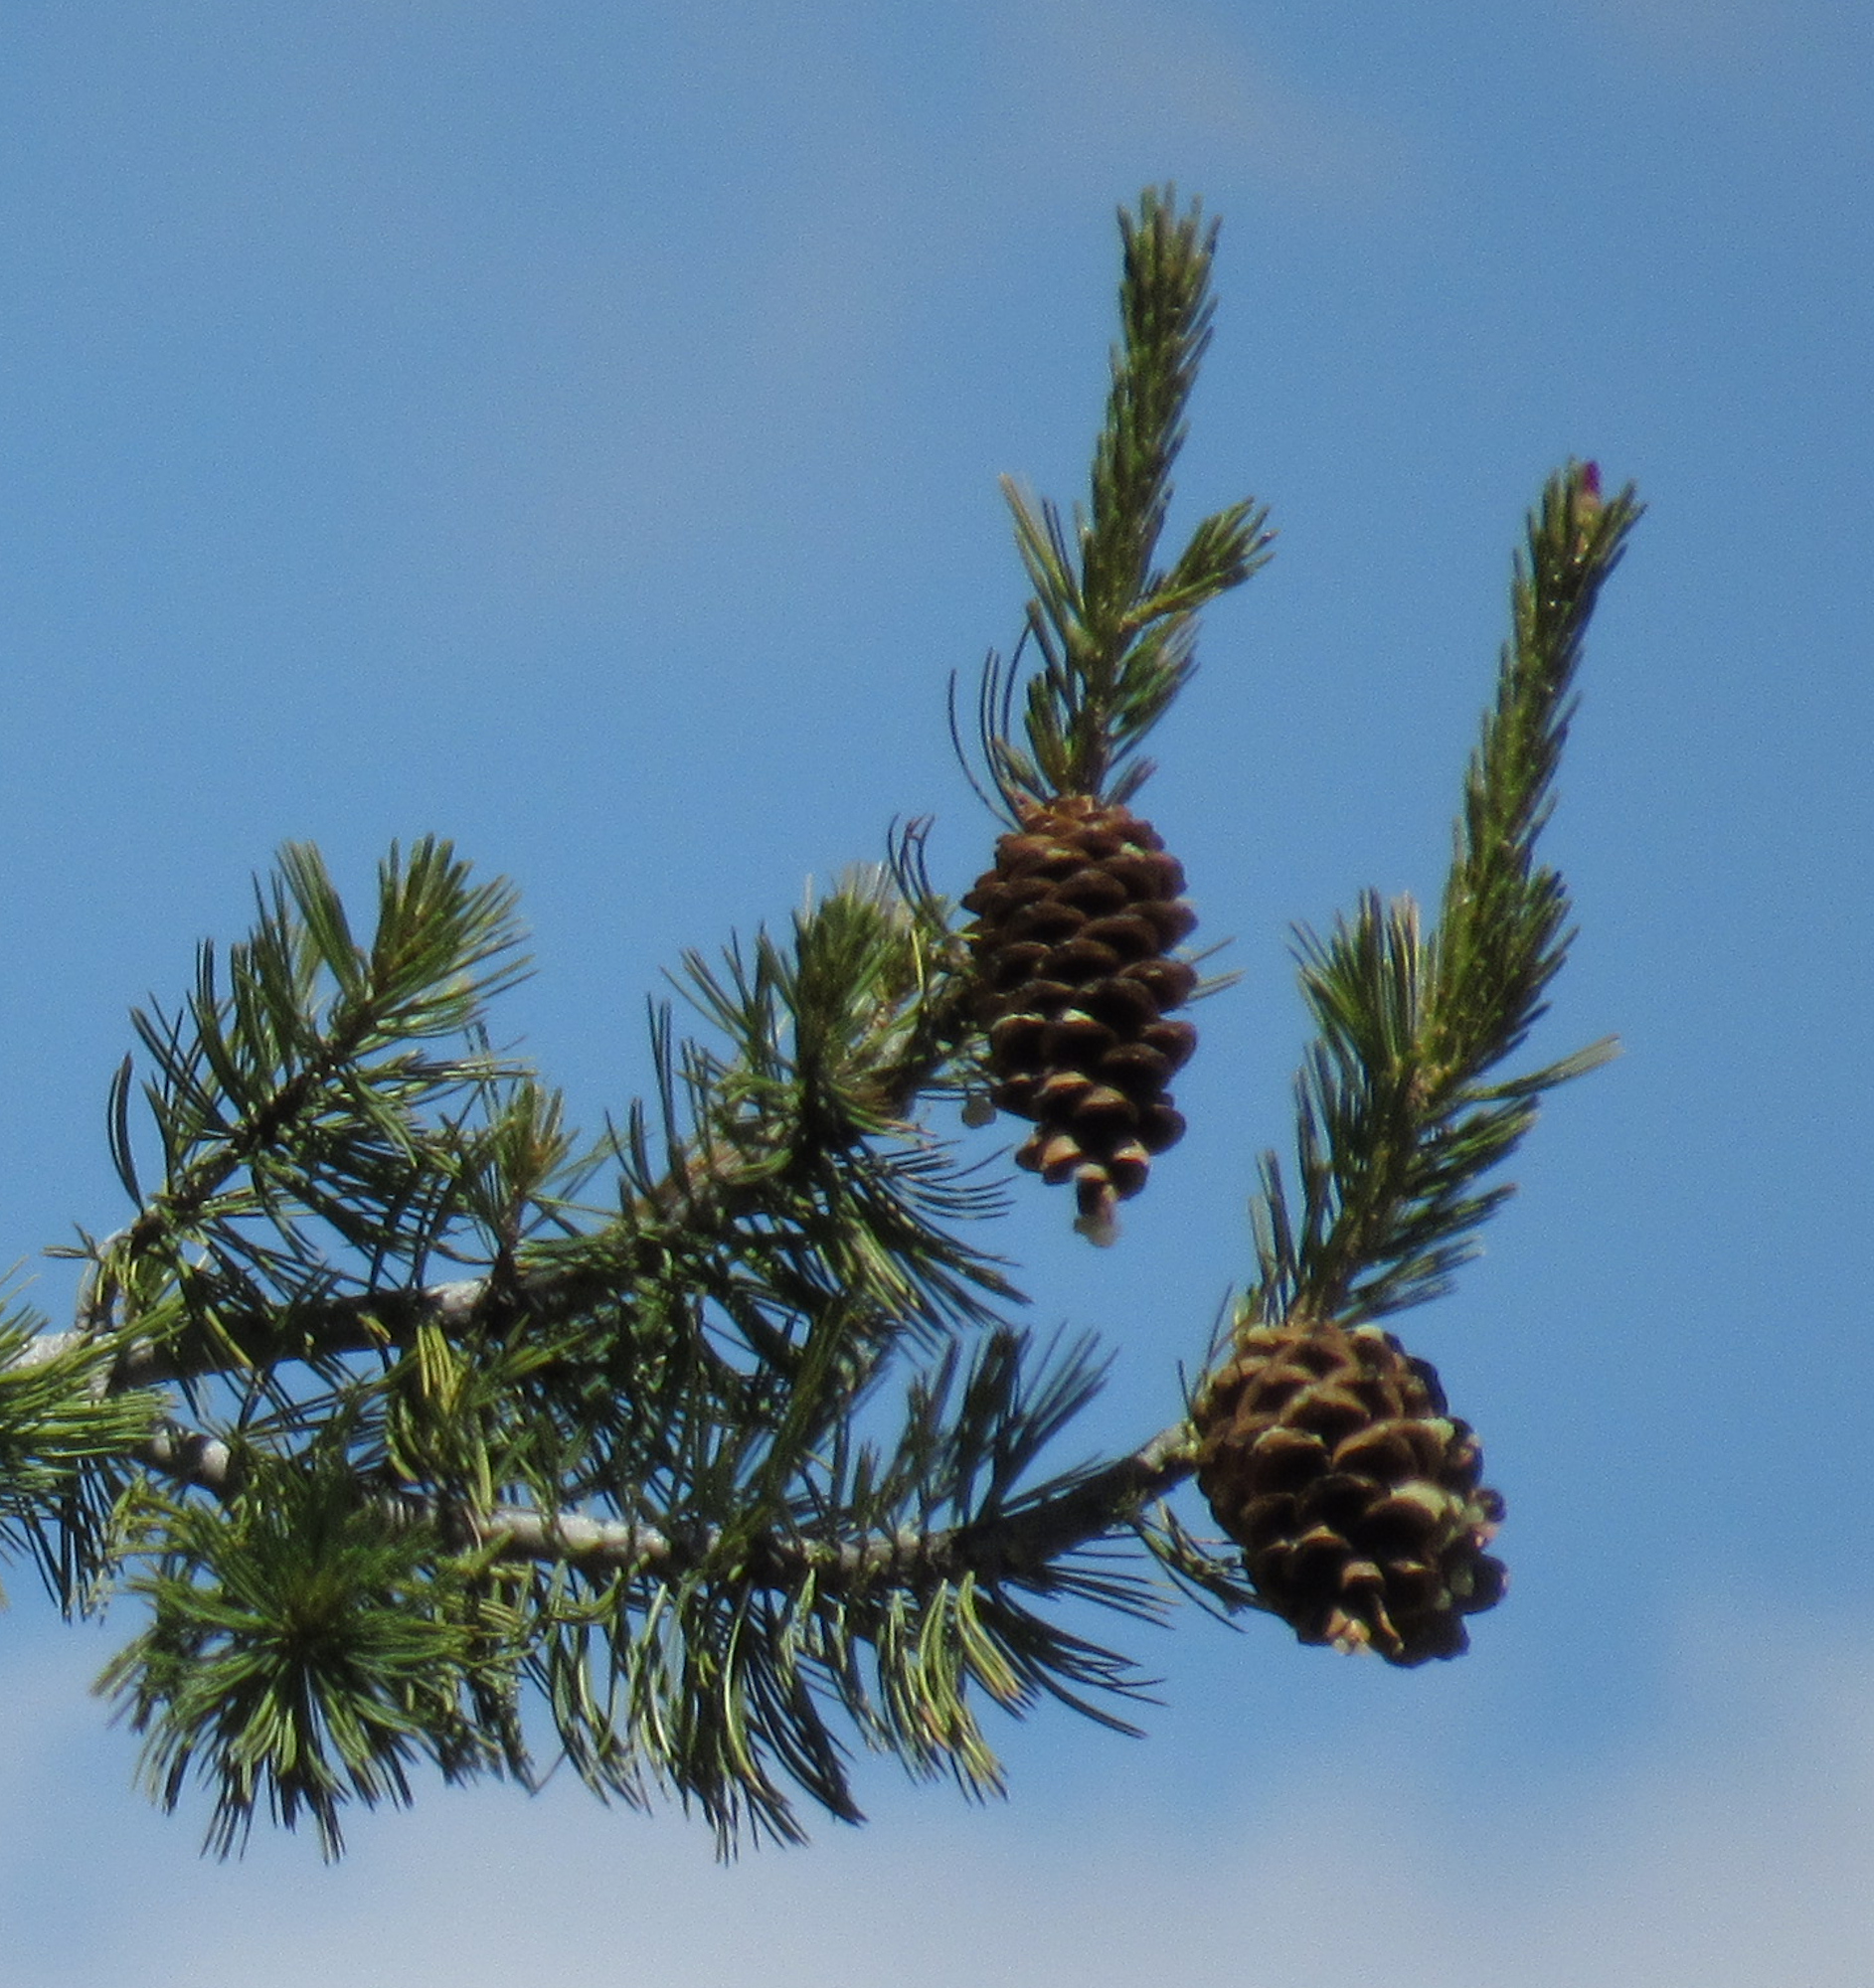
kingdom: Plantae
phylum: Tracheophyta
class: Pinopsida
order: Pinales
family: Pinaceae
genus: Pinus
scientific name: Pinus flexilis
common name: Limber pine
